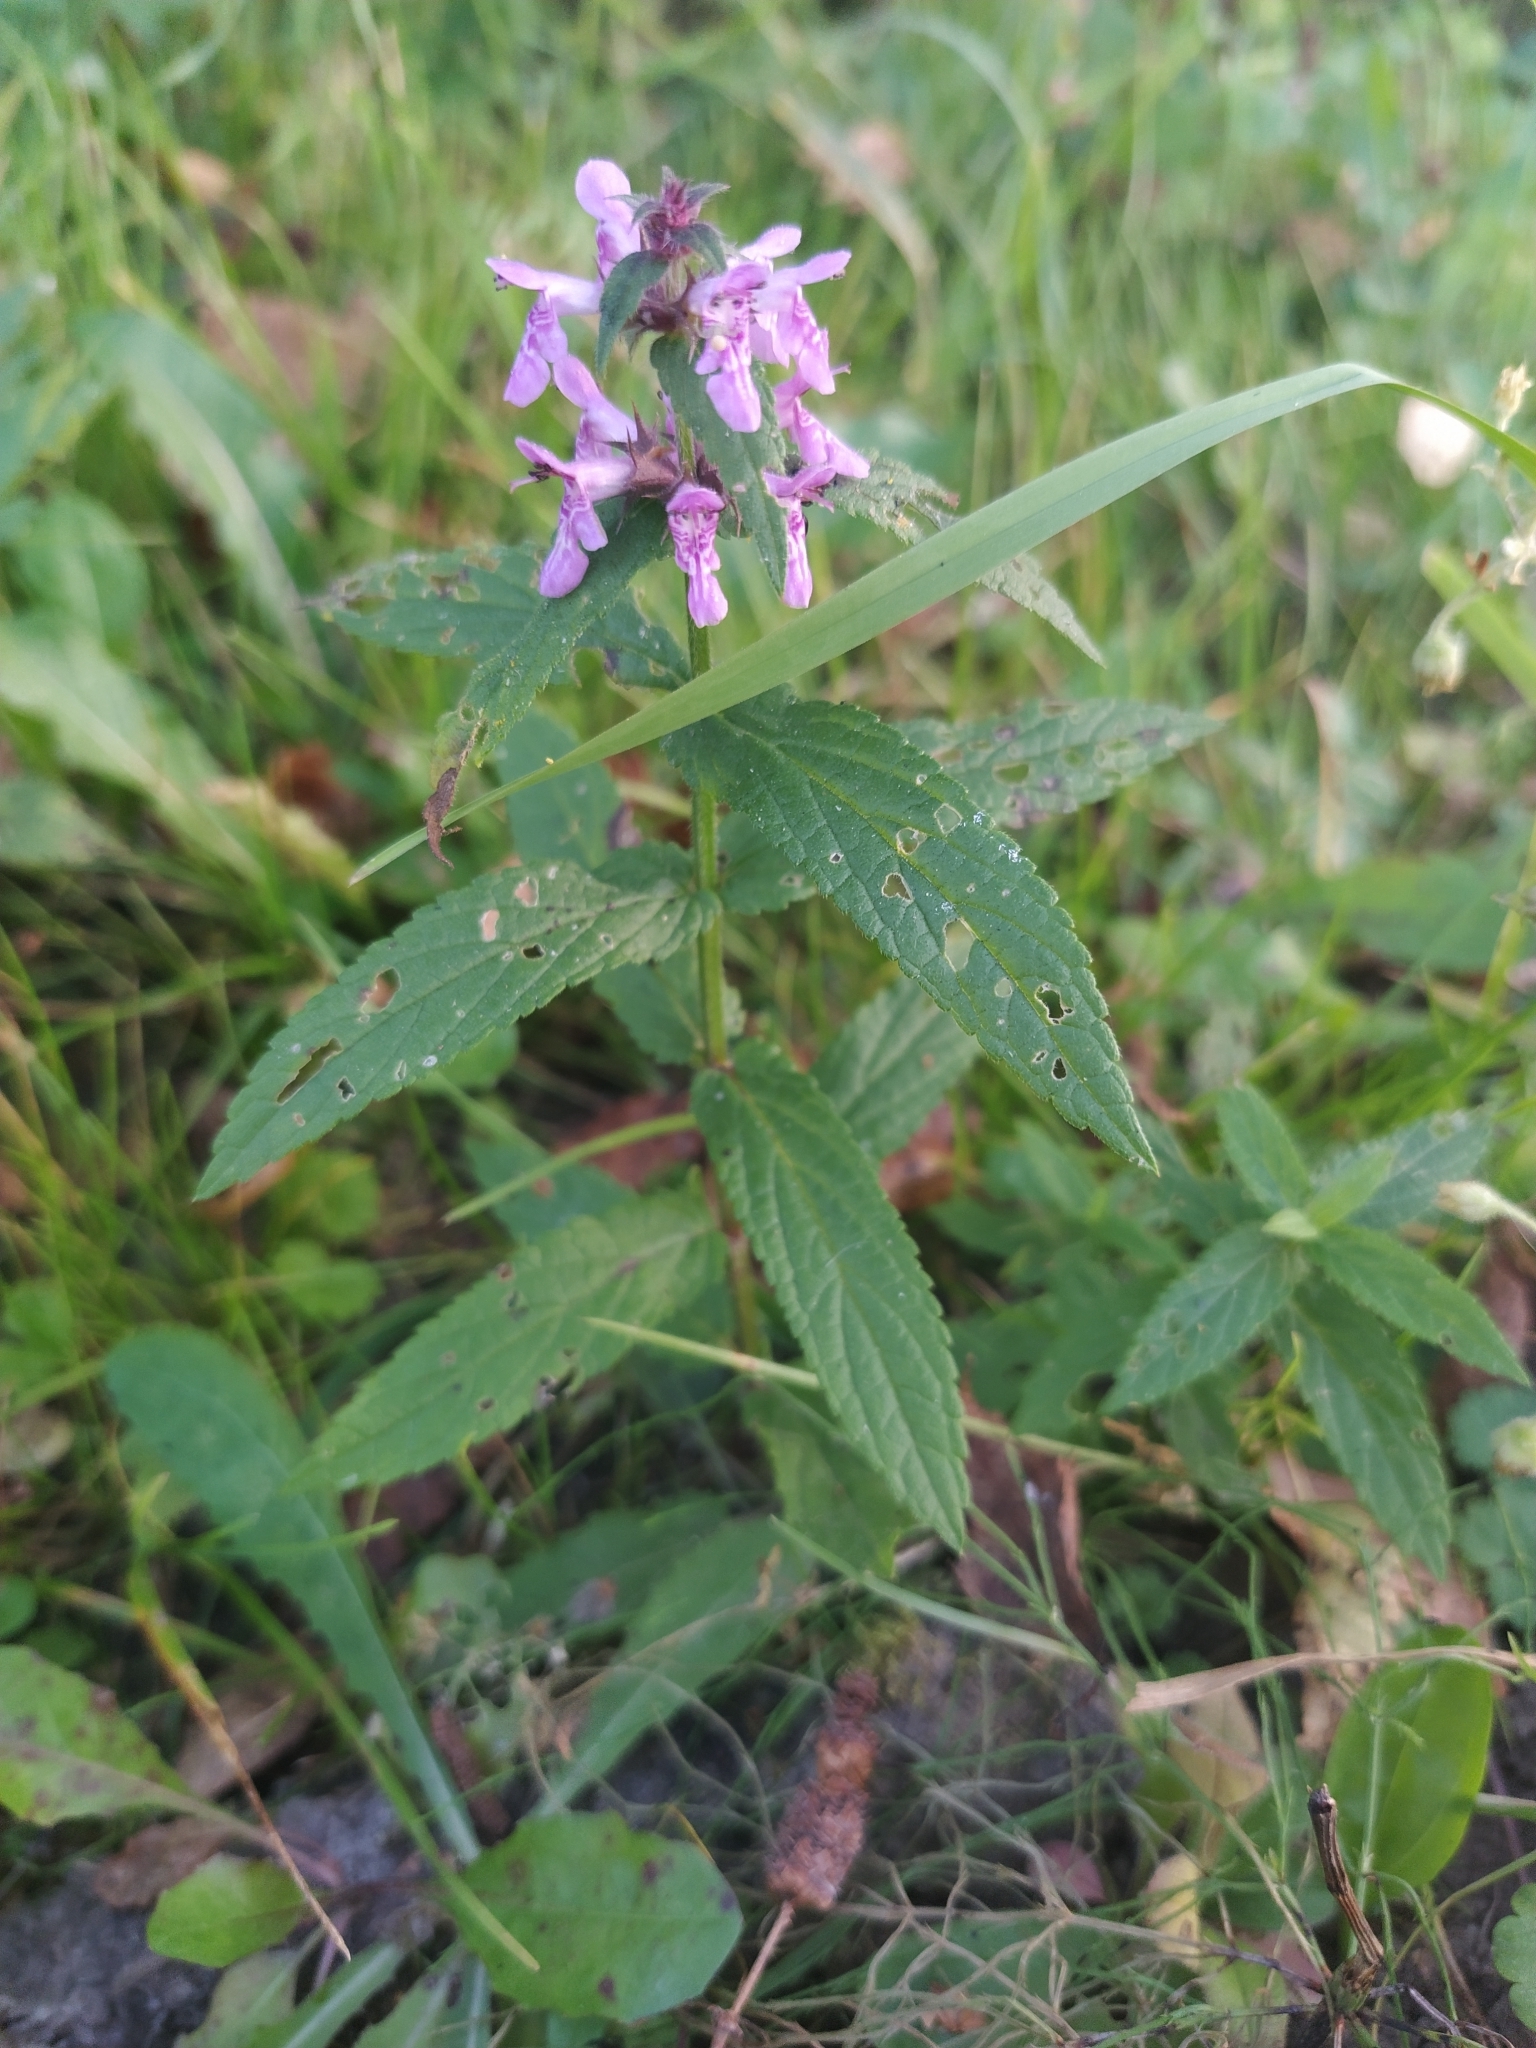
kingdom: Plantae
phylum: Tracheophyta
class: Magnoliopsida
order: Lamiales
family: Lamiaceae
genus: Stachys
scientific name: Stachys palustris
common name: Marsh woundwort
